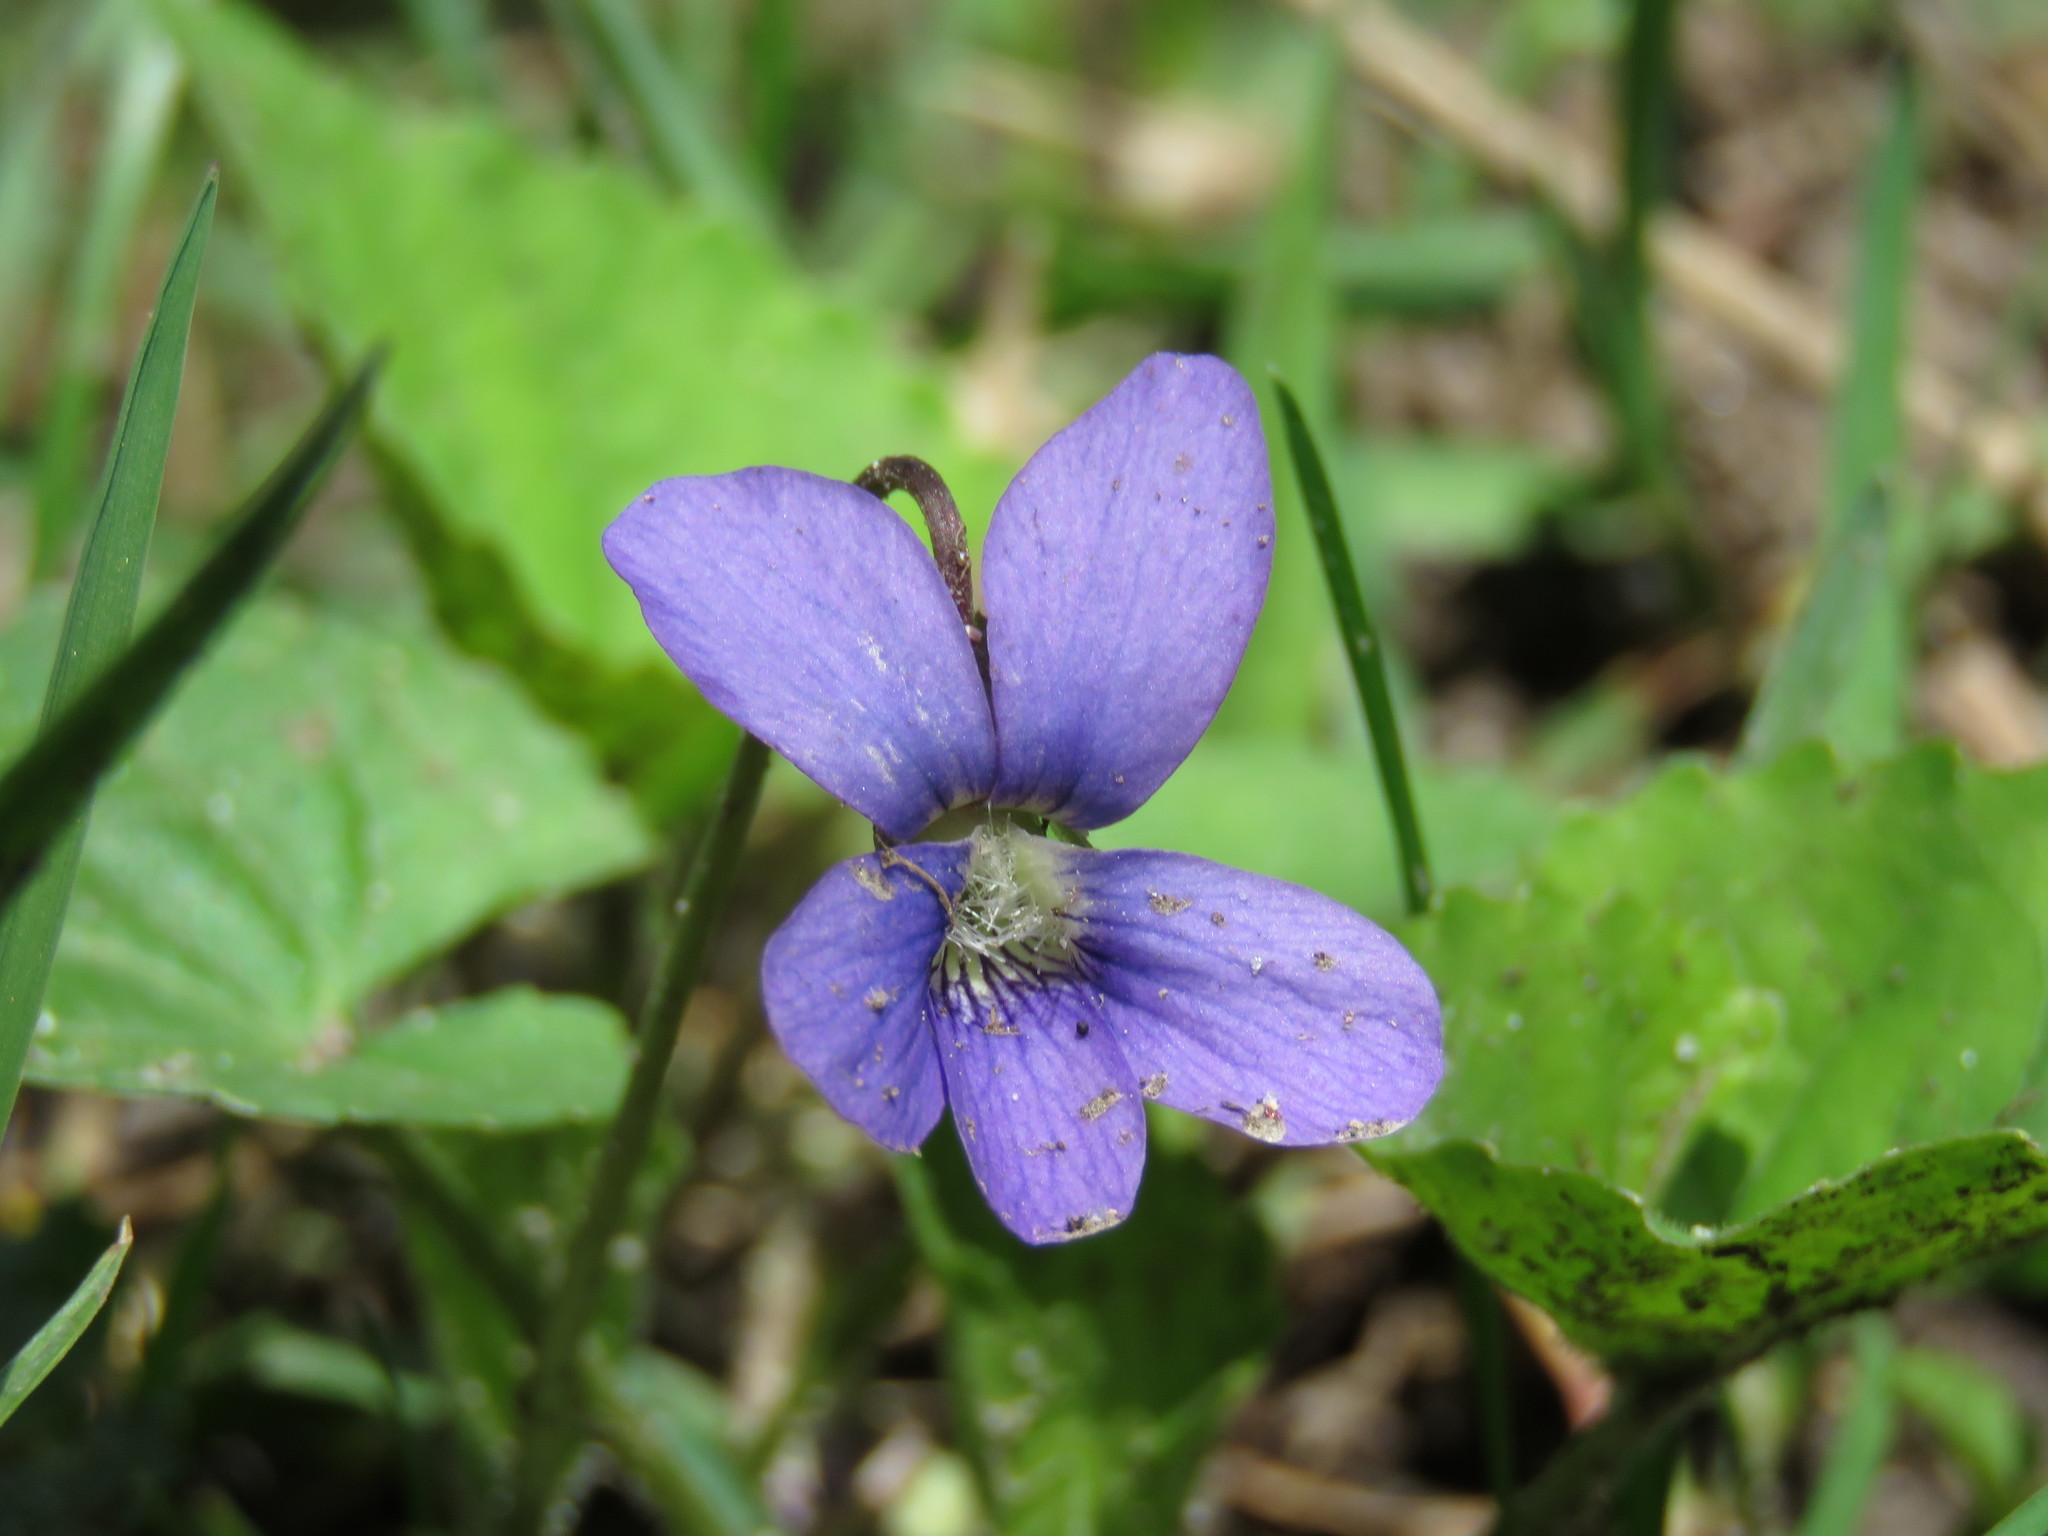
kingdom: Plantae
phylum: Tracheophyta
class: Magnoliopsida
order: Malpighiales
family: Violaceae
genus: Viola
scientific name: Viola sororia
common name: Dooryard violet
